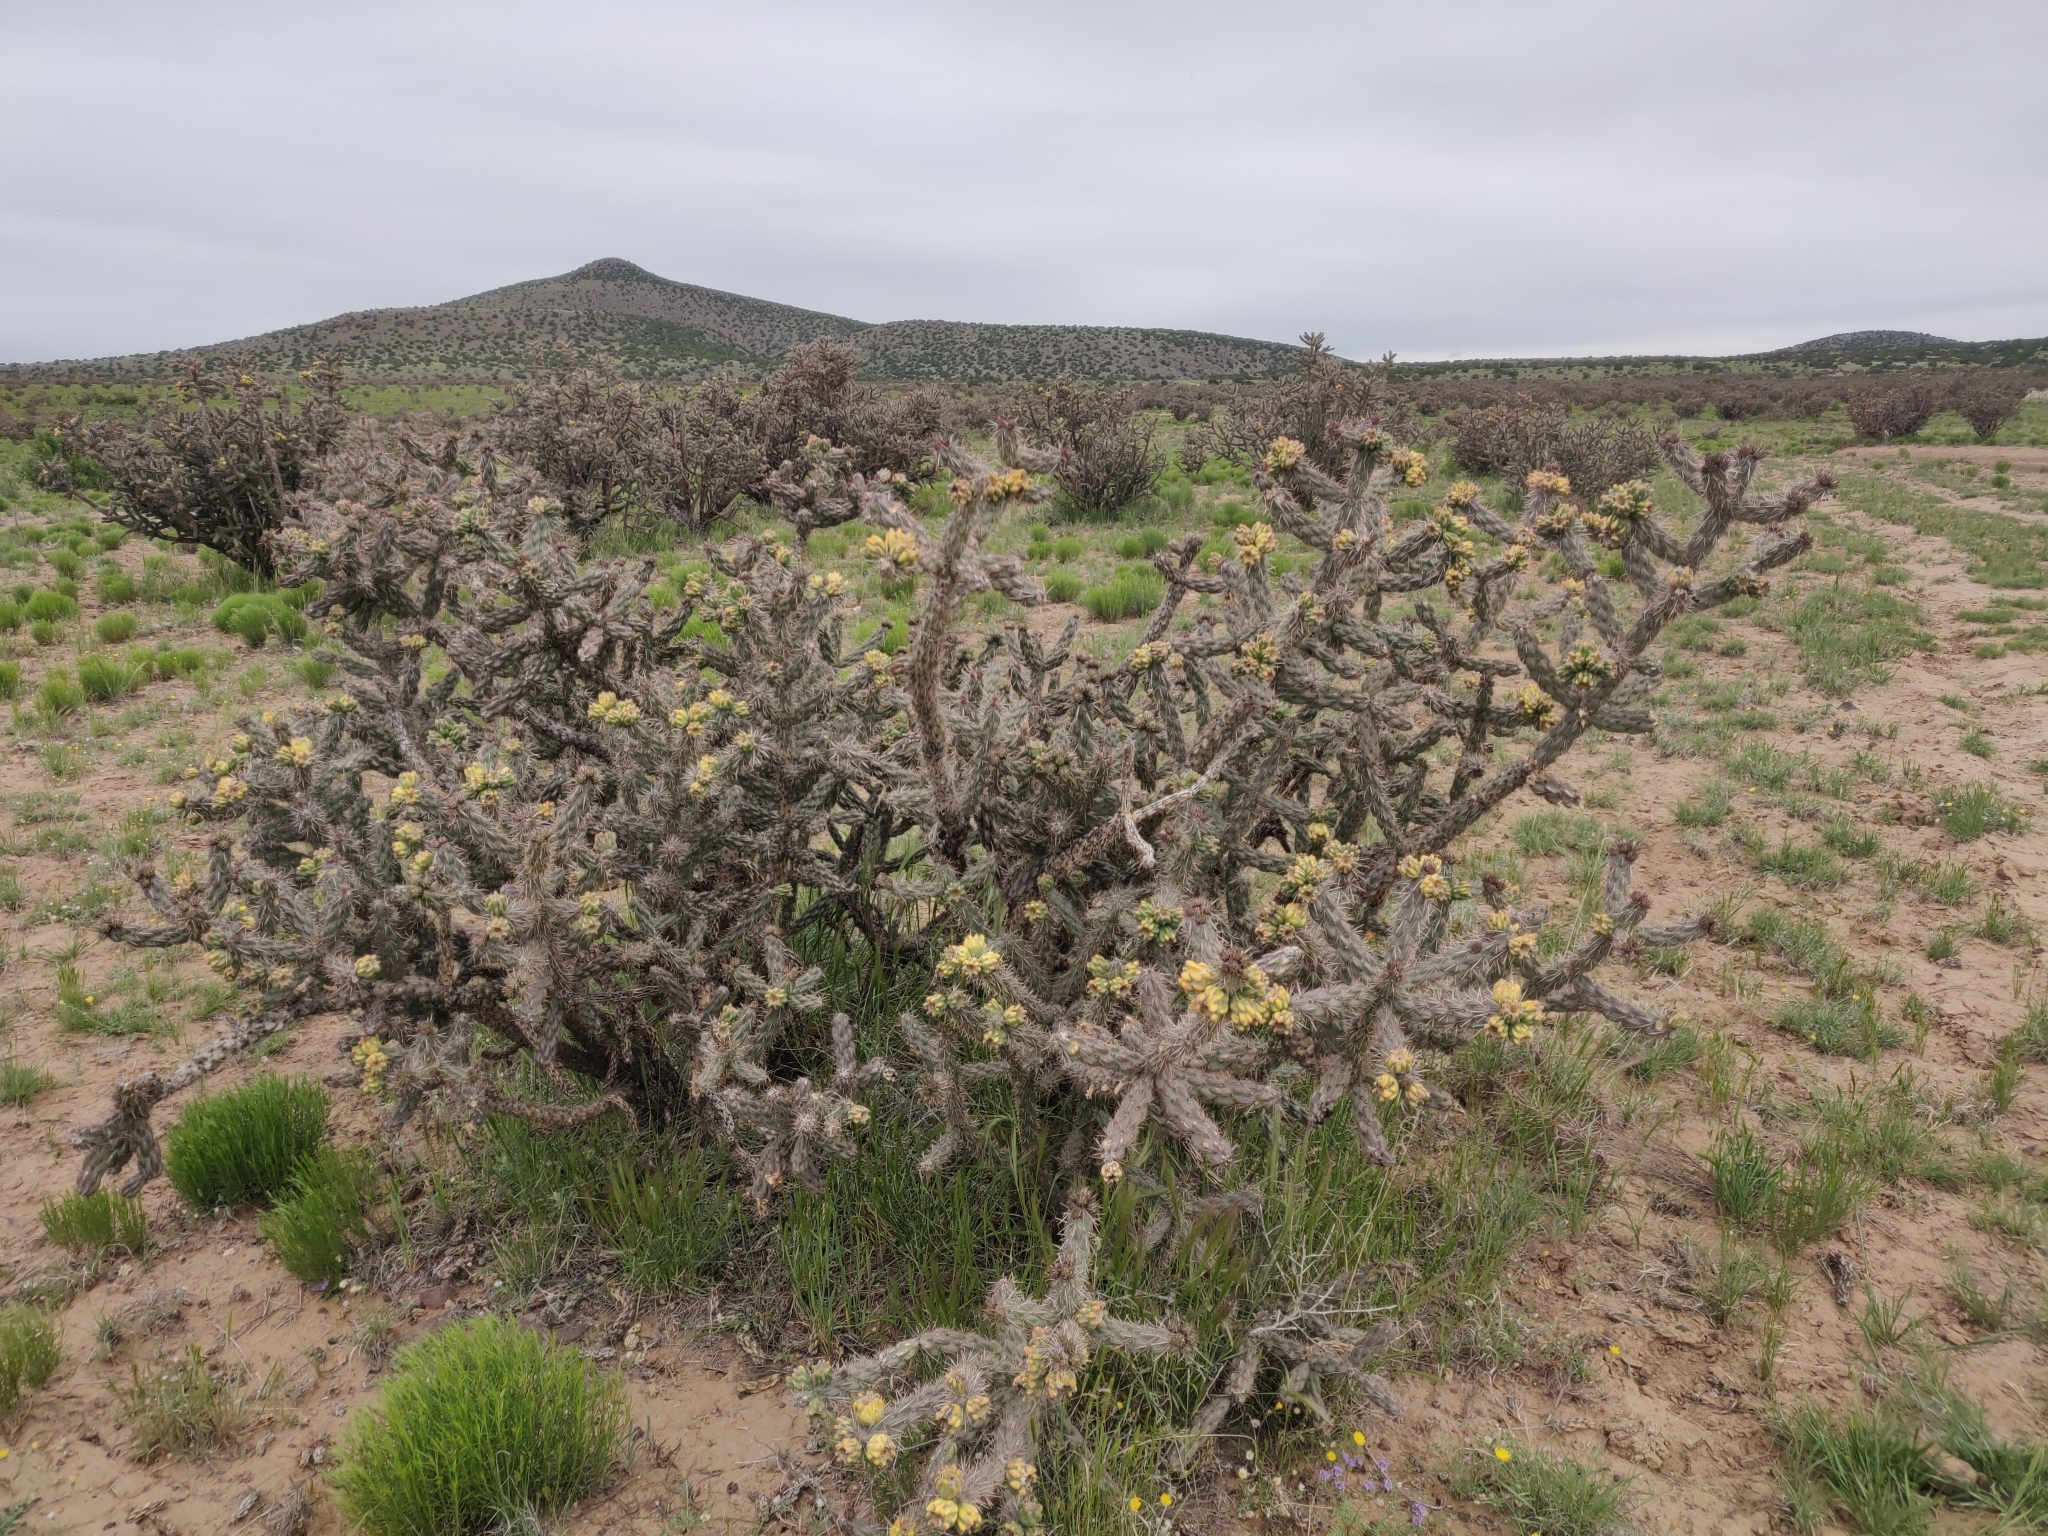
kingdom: Plantae
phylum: Tracheophyta
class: Magnoliopsida
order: Caryophyllales
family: Cactaceae
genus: Cylindropuntia
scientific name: Cylindropuntia imbricata
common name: Candelabrum cactus
